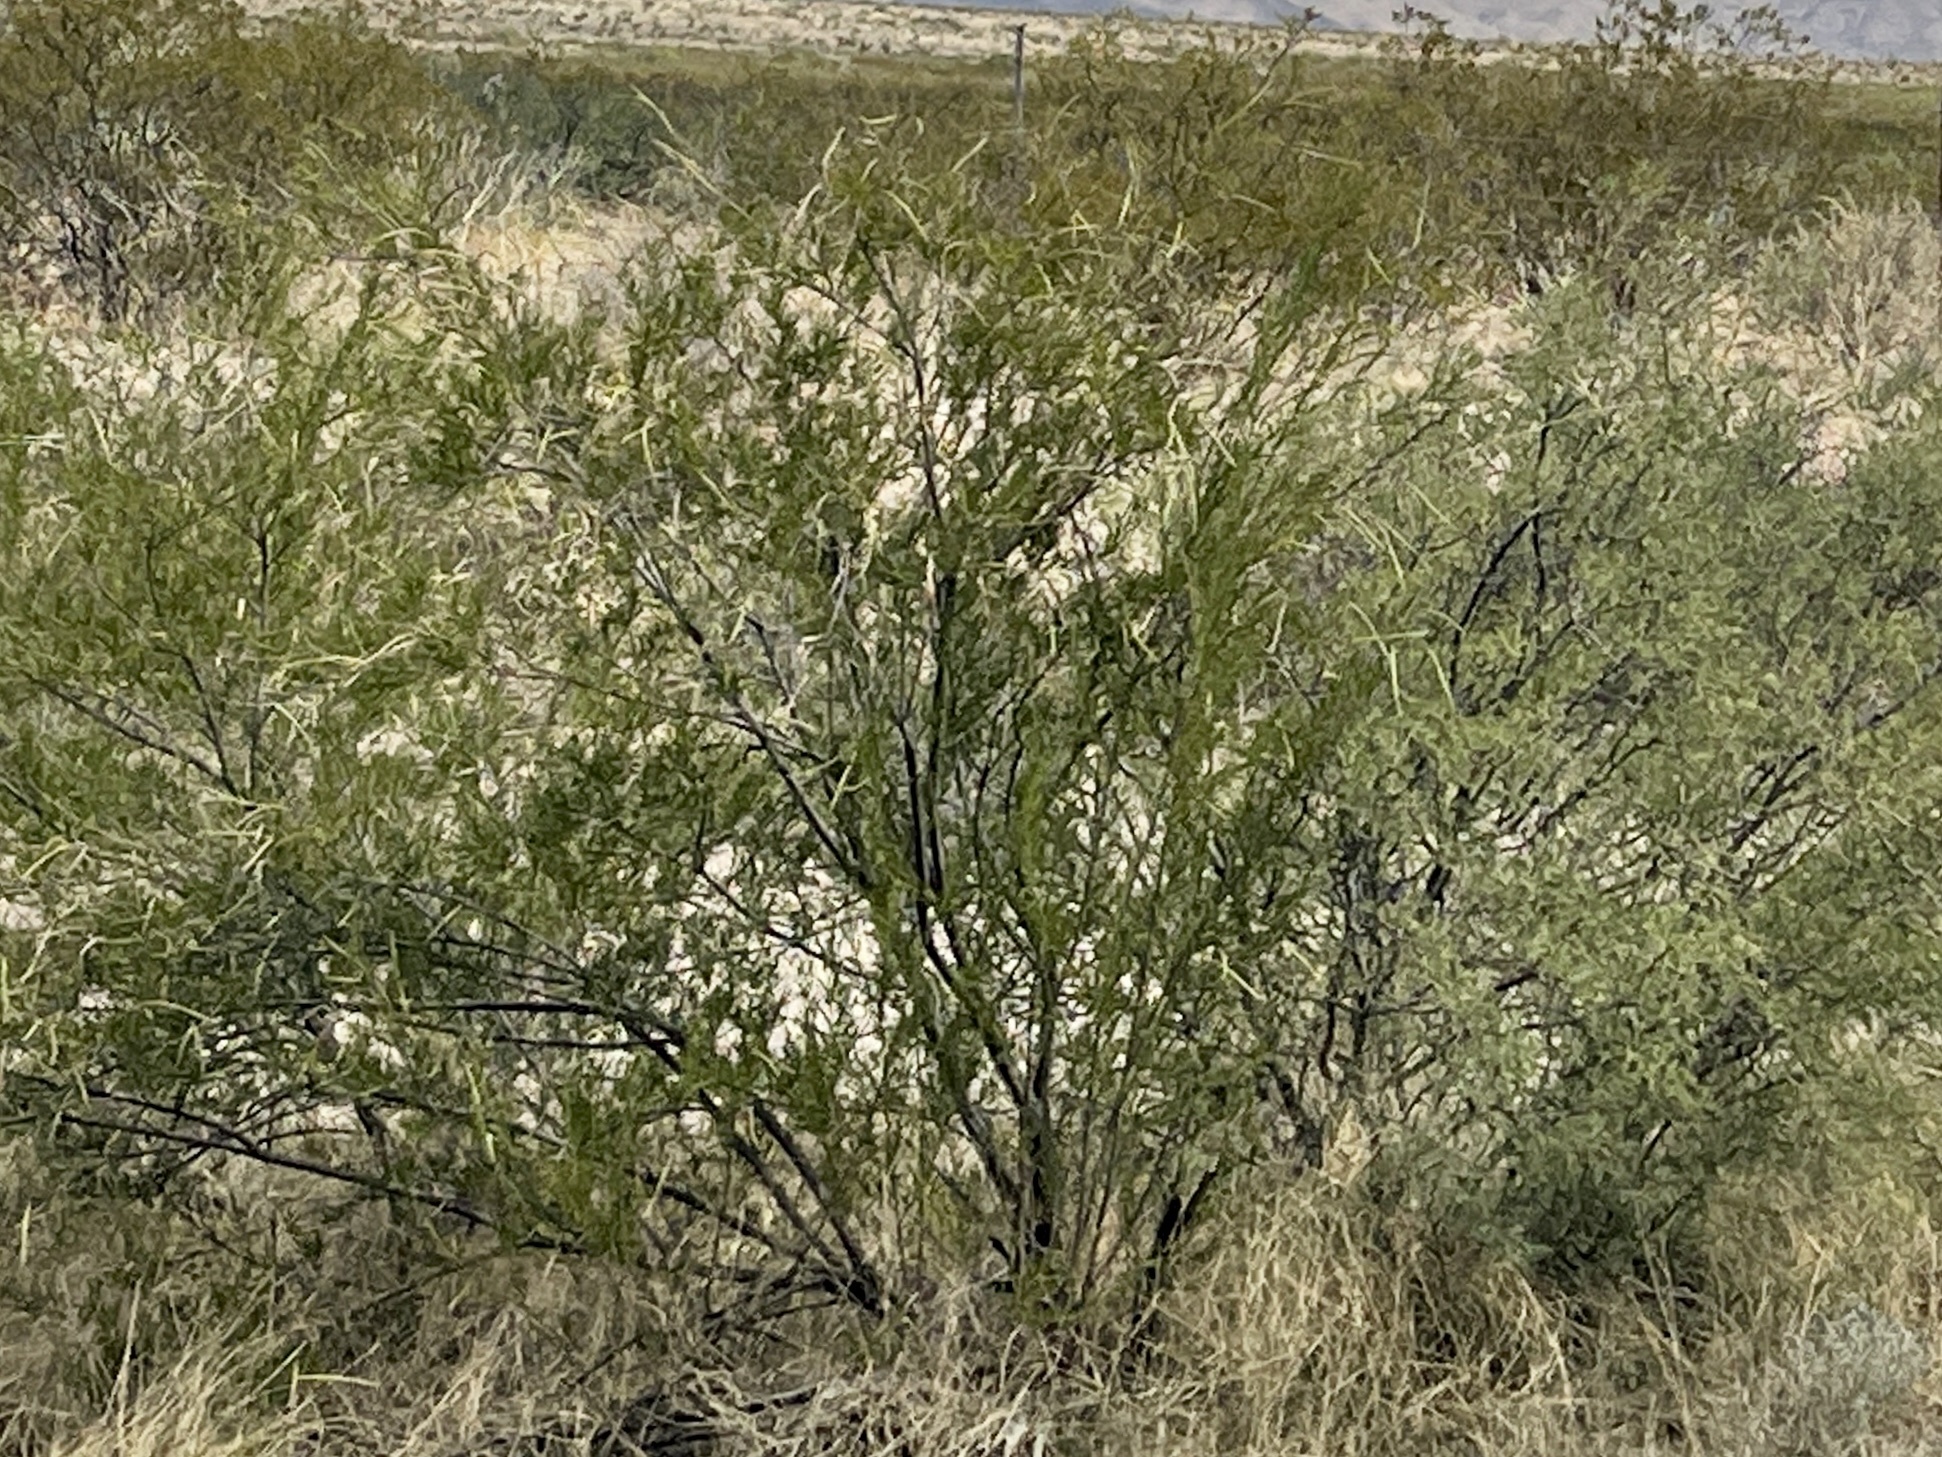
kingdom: Plantae
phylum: Tracheophyta
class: Magnoliopsida
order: Lamiales
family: Bignoniaceae
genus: Chilopsis
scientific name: Chilopsis linearis
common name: Desert-willow
